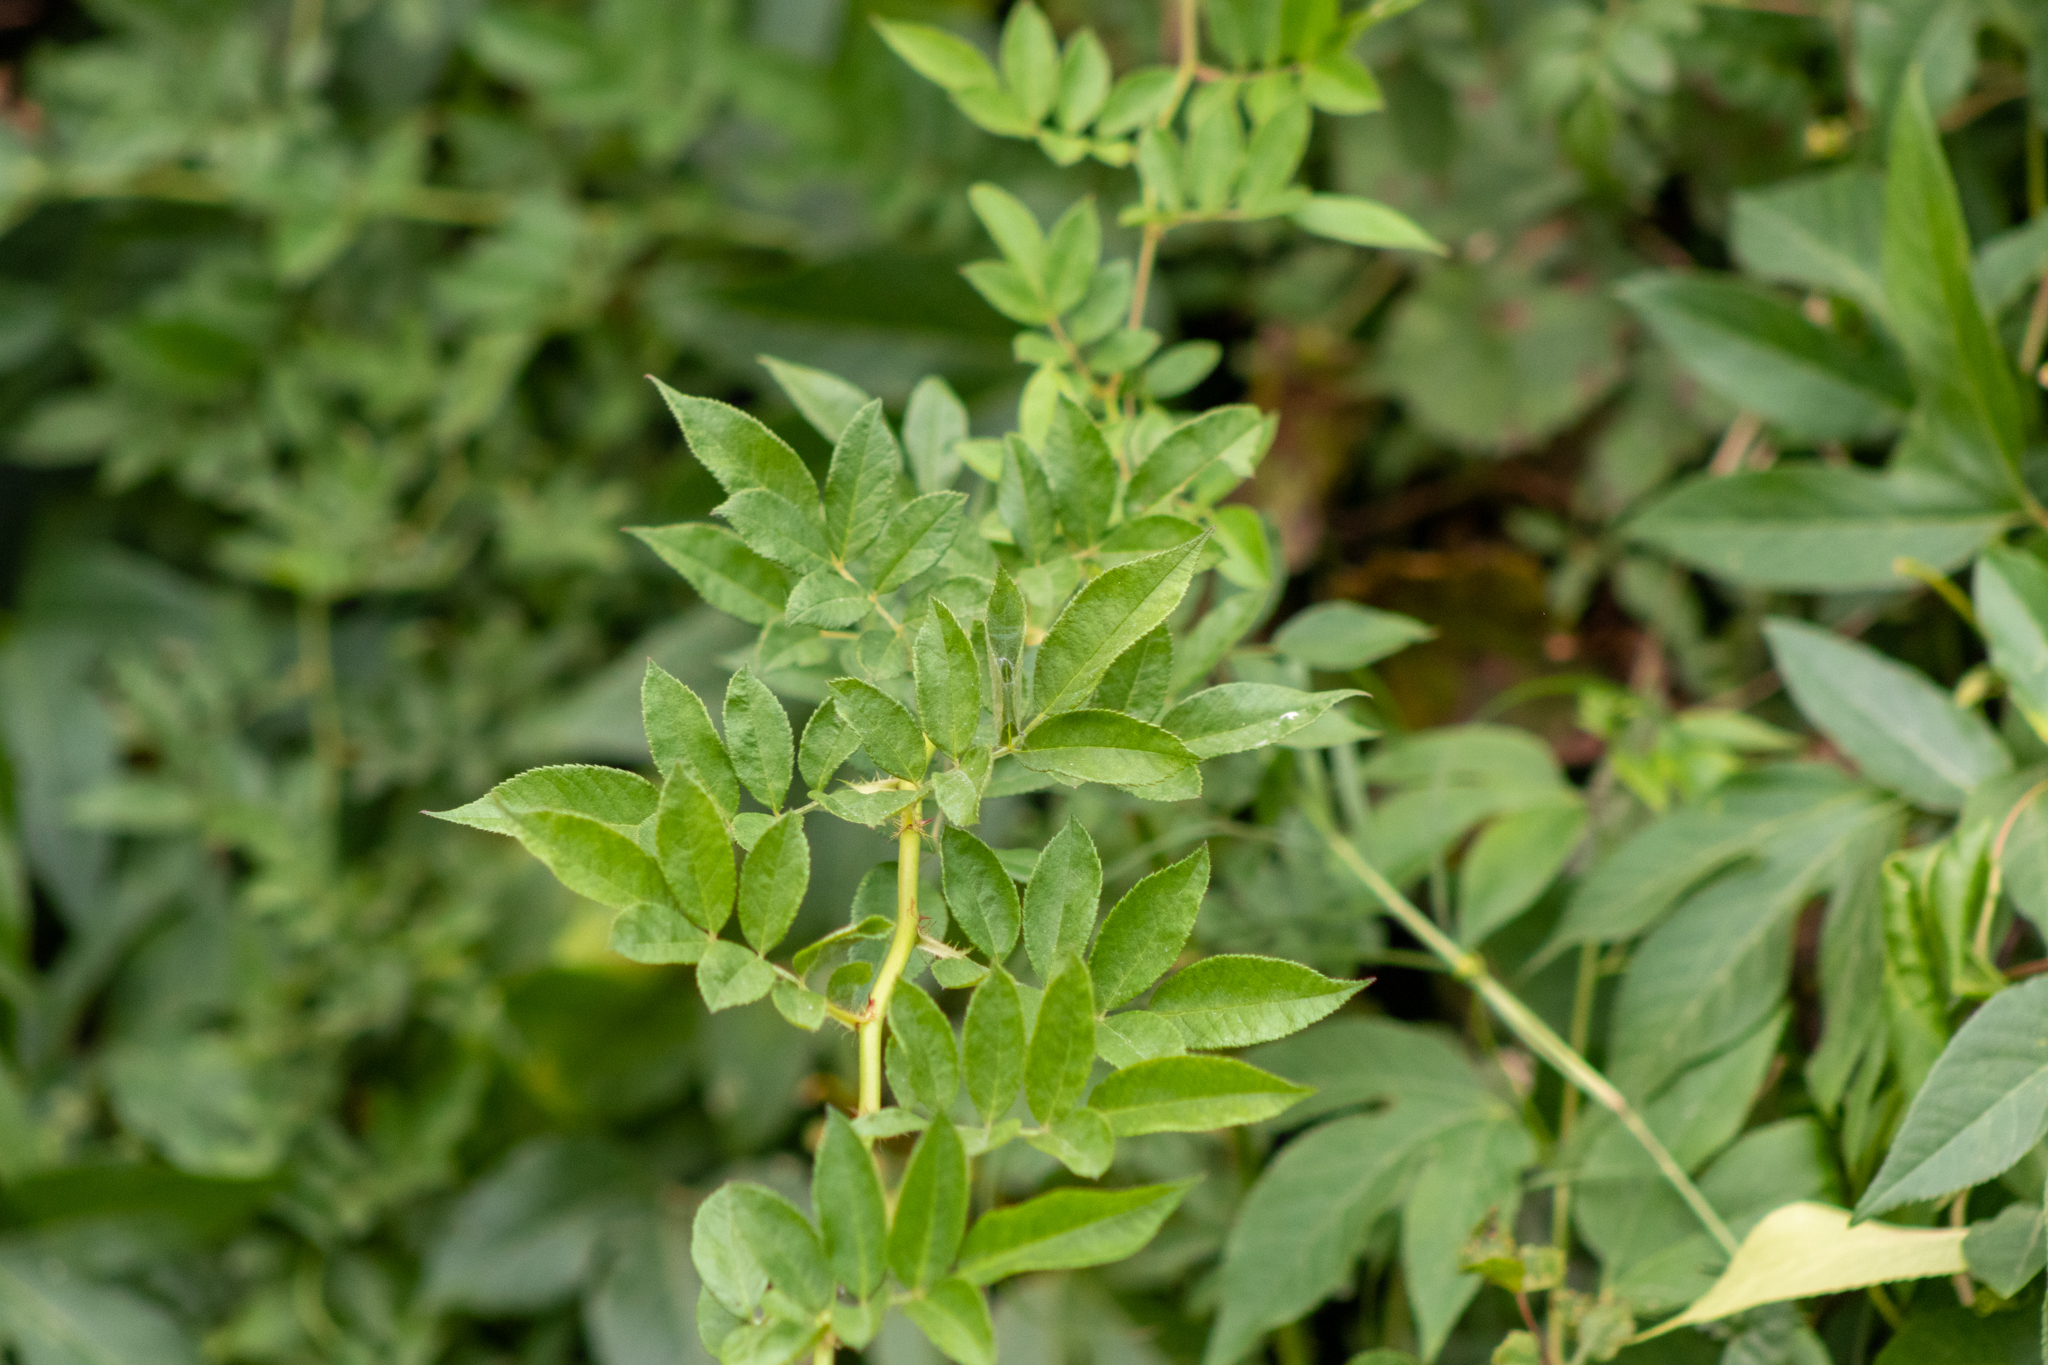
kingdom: Plantae
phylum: Tracheophyta
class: Magnoliopsida
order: Rosales
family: Rosaceae
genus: Rosa
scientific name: Rosa multiflora
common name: Multiflora rose
